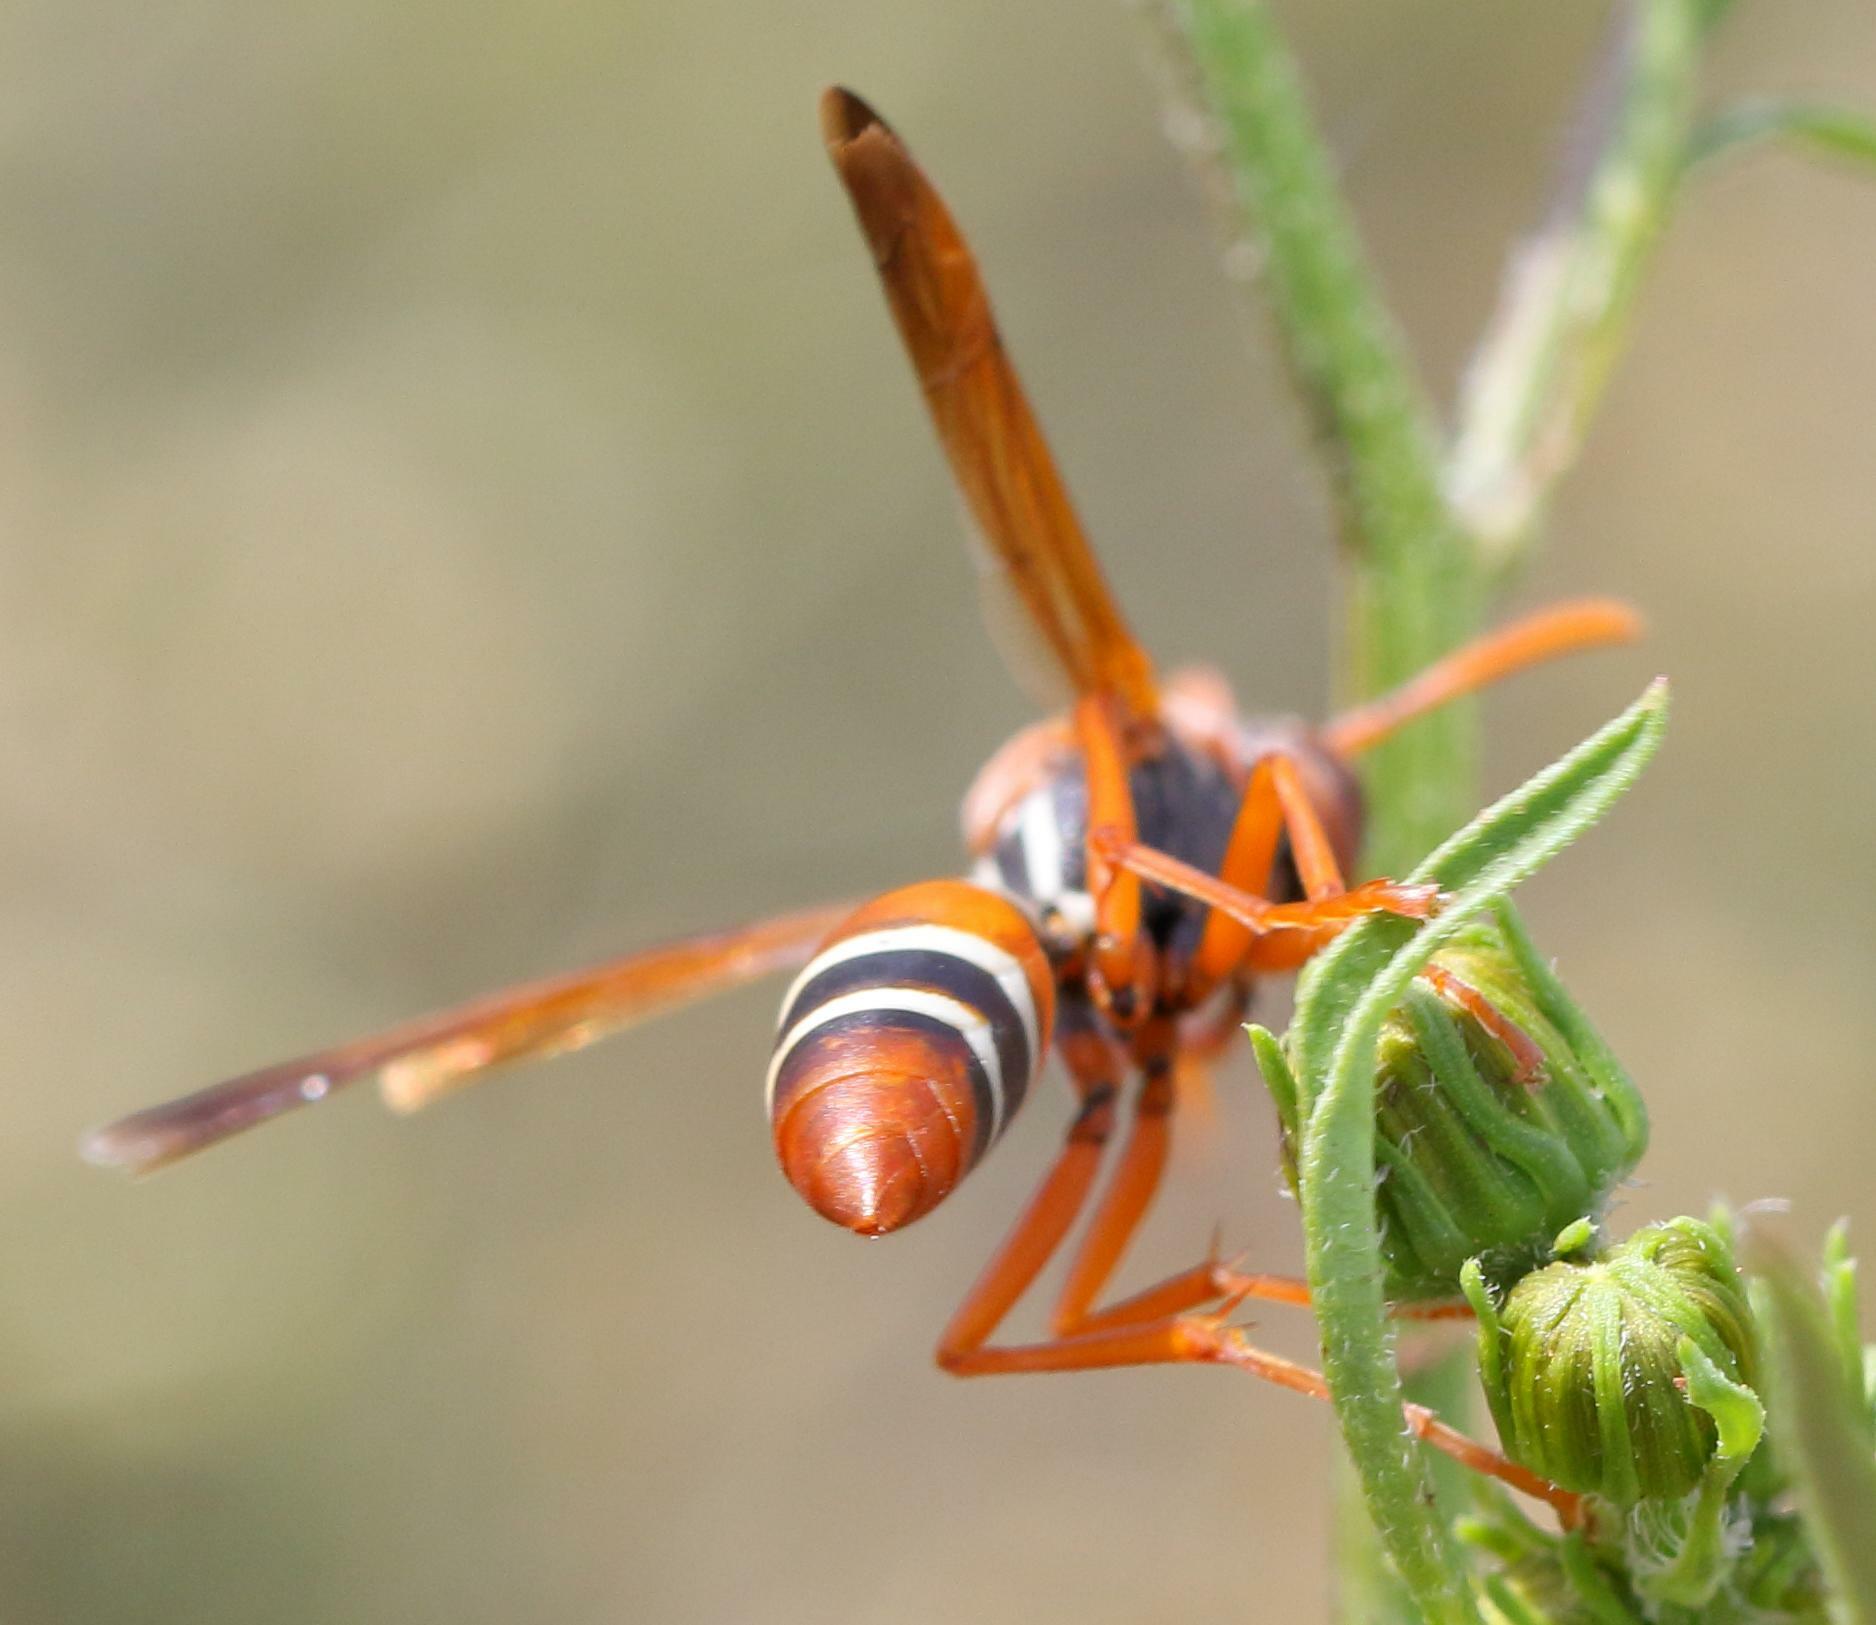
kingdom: Animalia
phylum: Arthropoda
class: Insecta
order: Hymenoptera
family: Eumenidae
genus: Polistes
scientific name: Polistes marginalis
